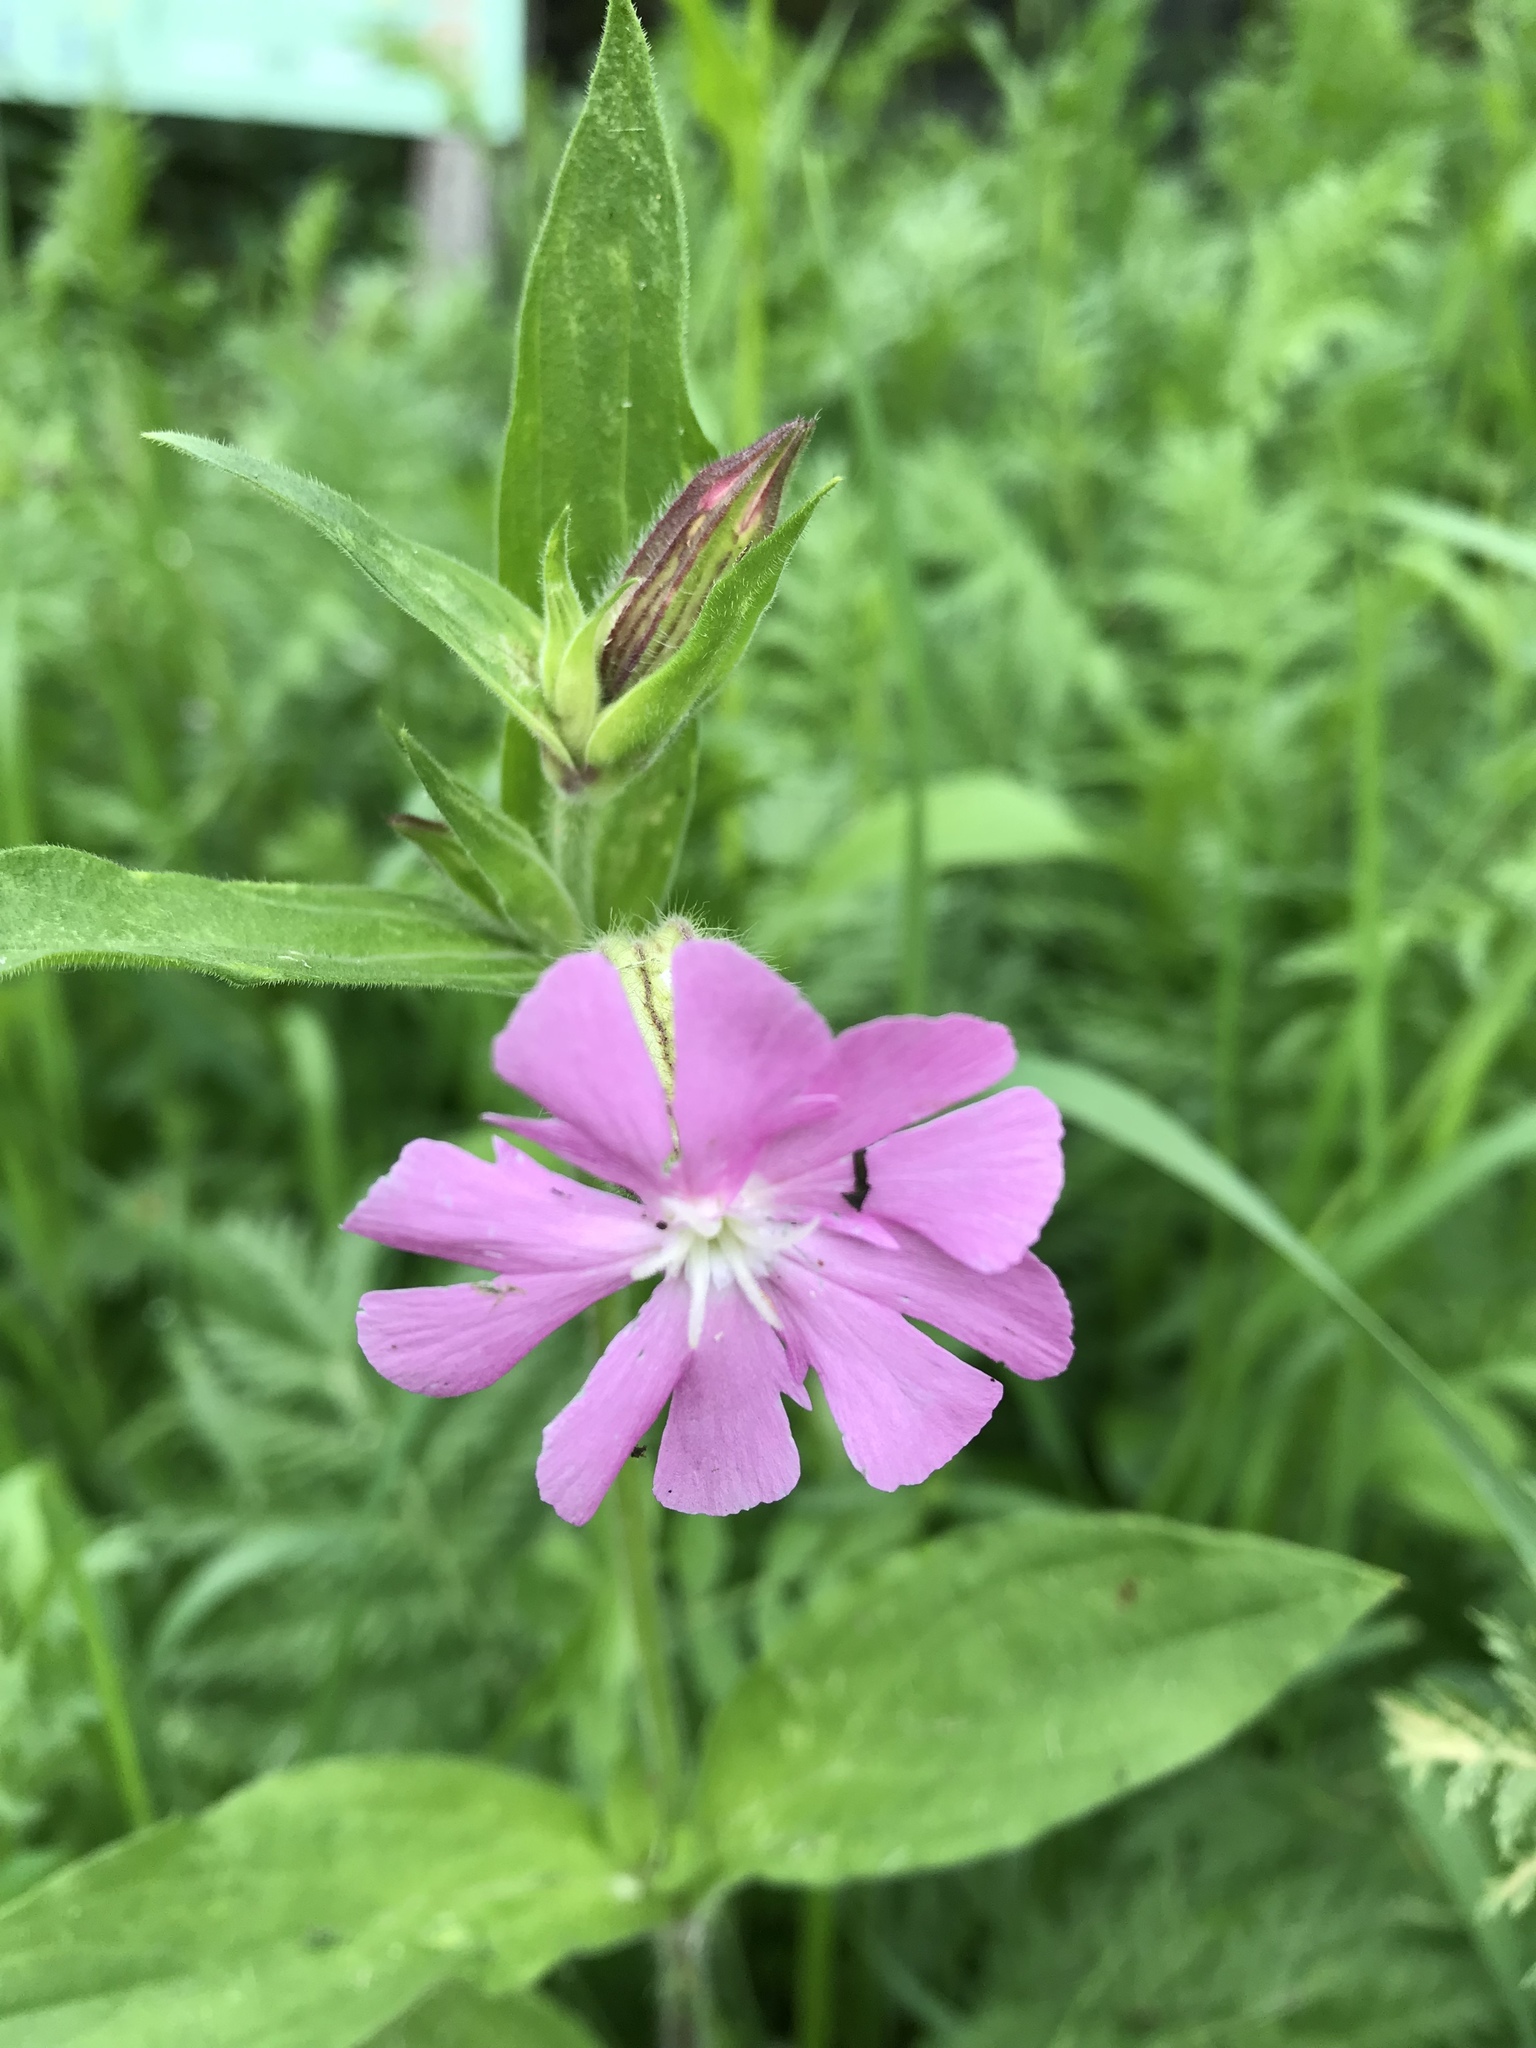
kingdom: Plantae
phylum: Tracheophyta
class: Magnoliopsida
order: Caryophyllales
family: Caryophyllaceae
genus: Silene
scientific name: Silene dioica
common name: Red campion
